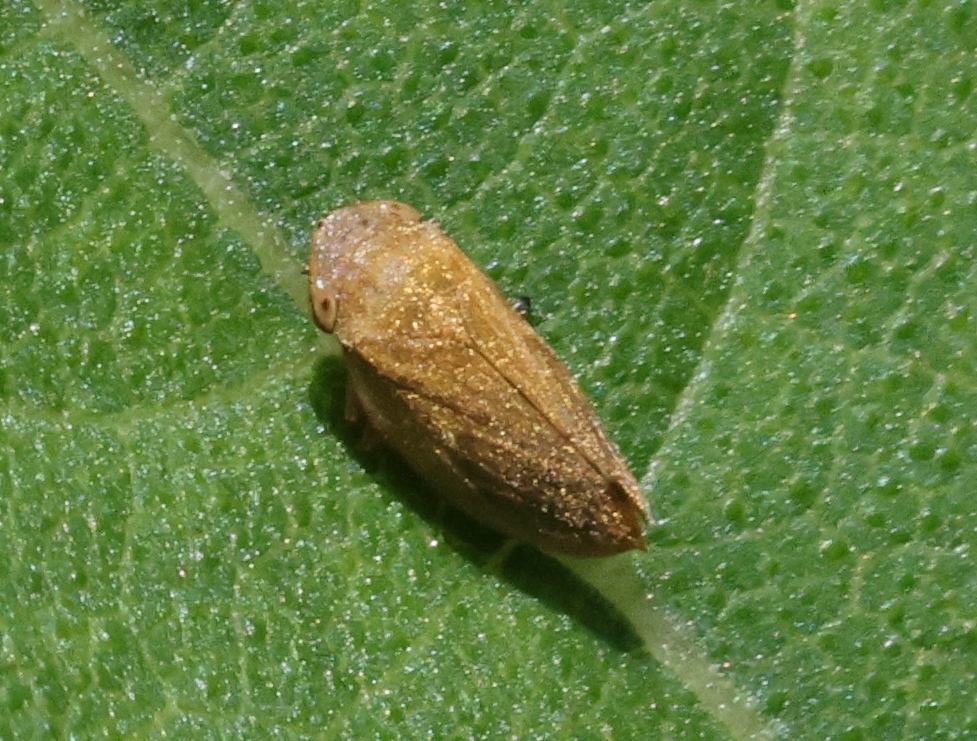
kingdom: Animalia
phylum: Arthropoda
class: Insecta
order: Hemiptera
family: Aphrophoridae
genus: Philaenus
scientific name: Philaenus spumarius
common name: Meadow spittlebug
